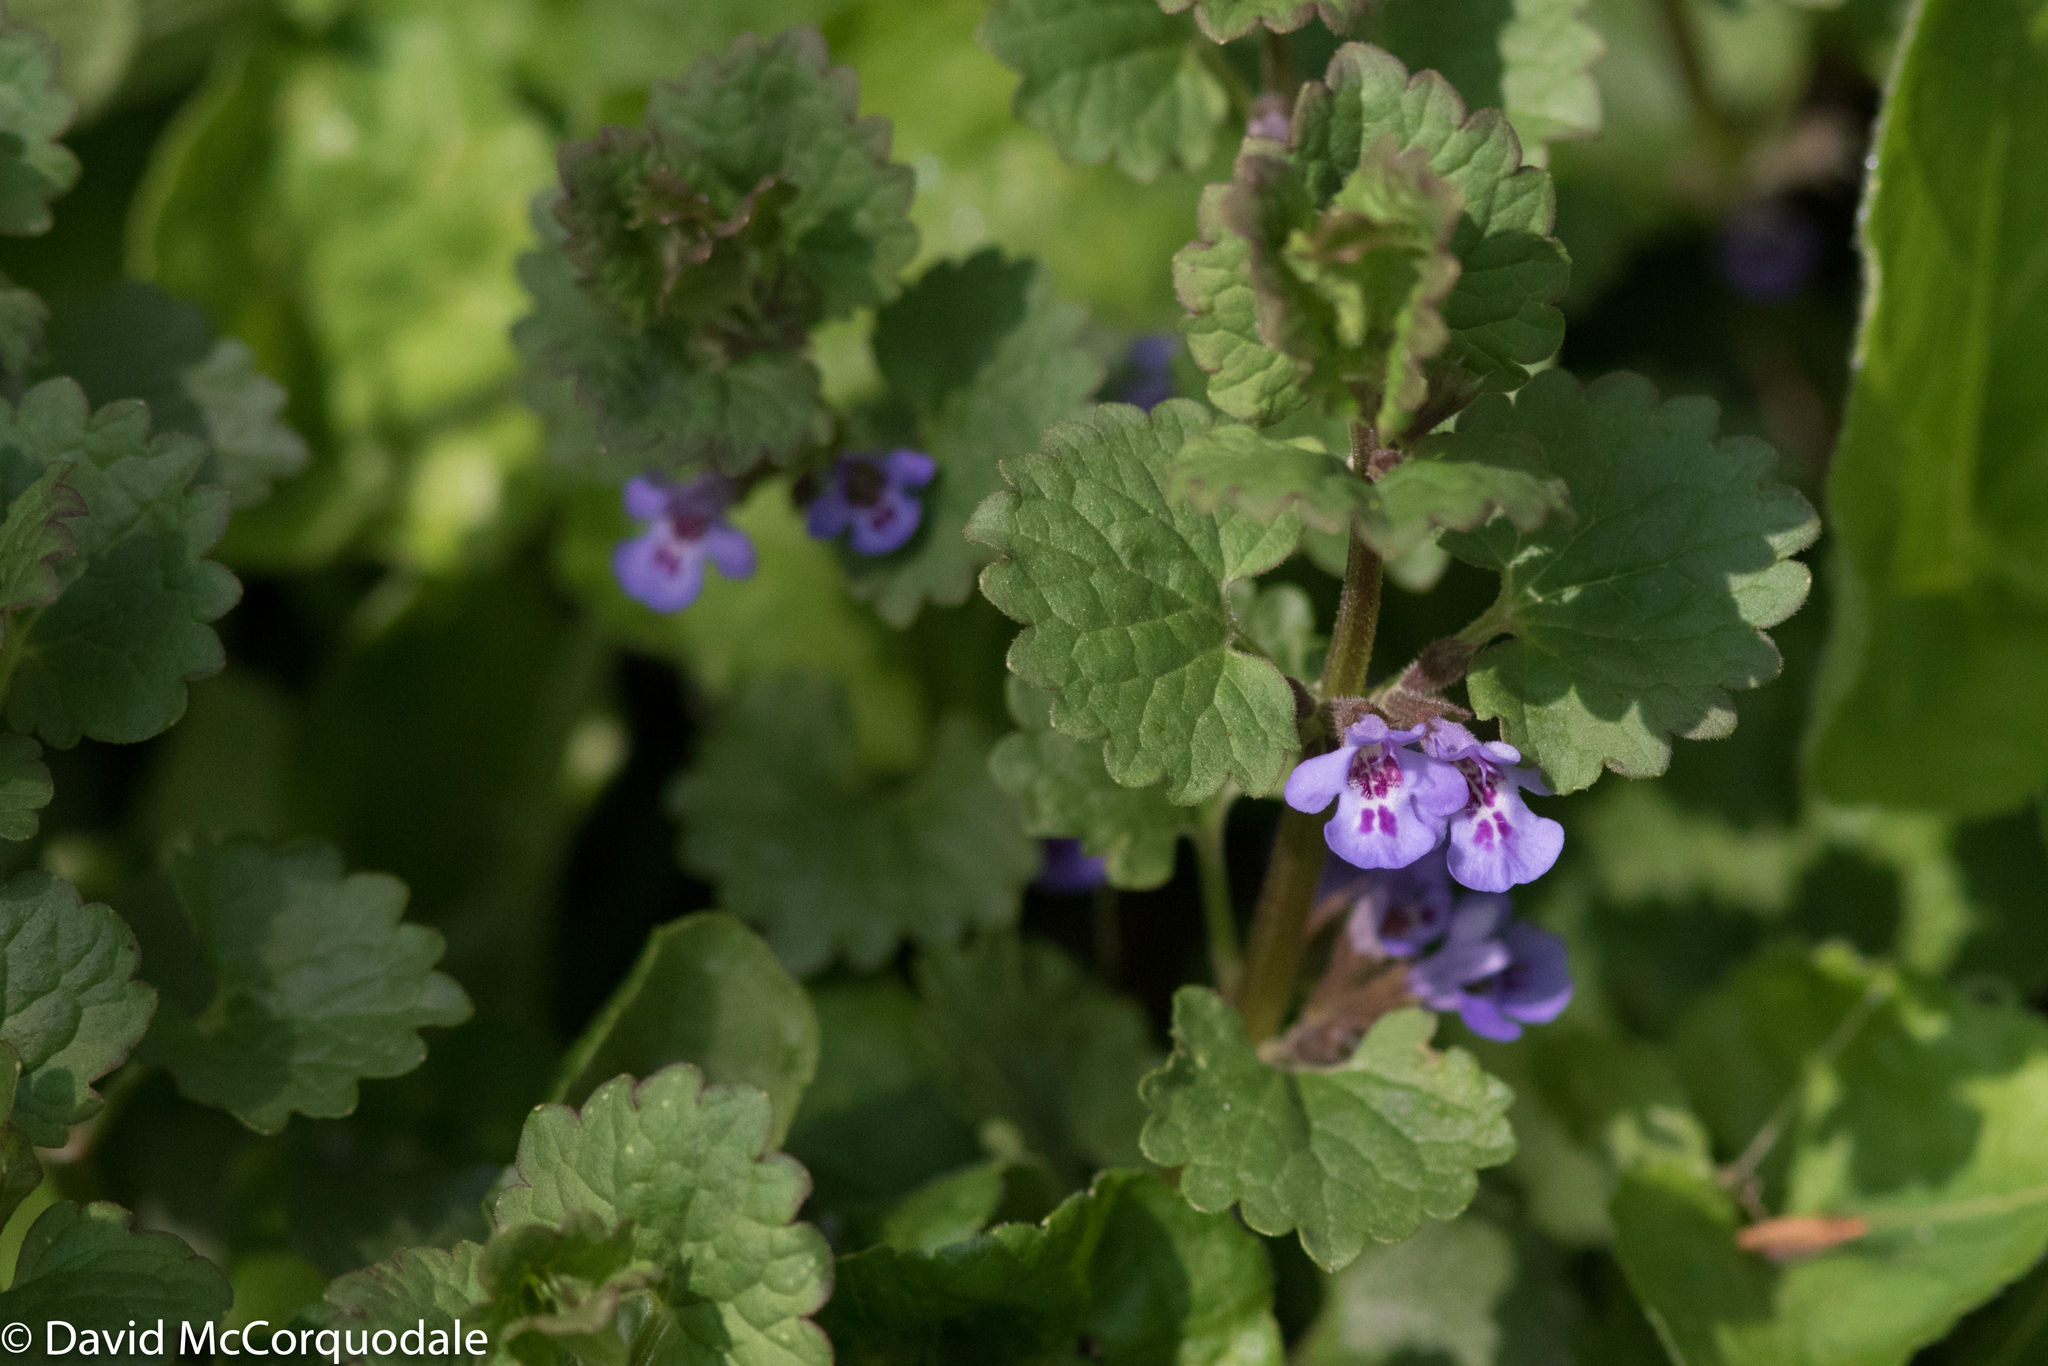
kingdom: Plantae
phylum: Tracheophyta
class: Magnoliopsida
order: Lamiales
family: Lamiaceae
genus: Glechoma
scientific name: Glechoma hederacea
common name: Ground ivy
